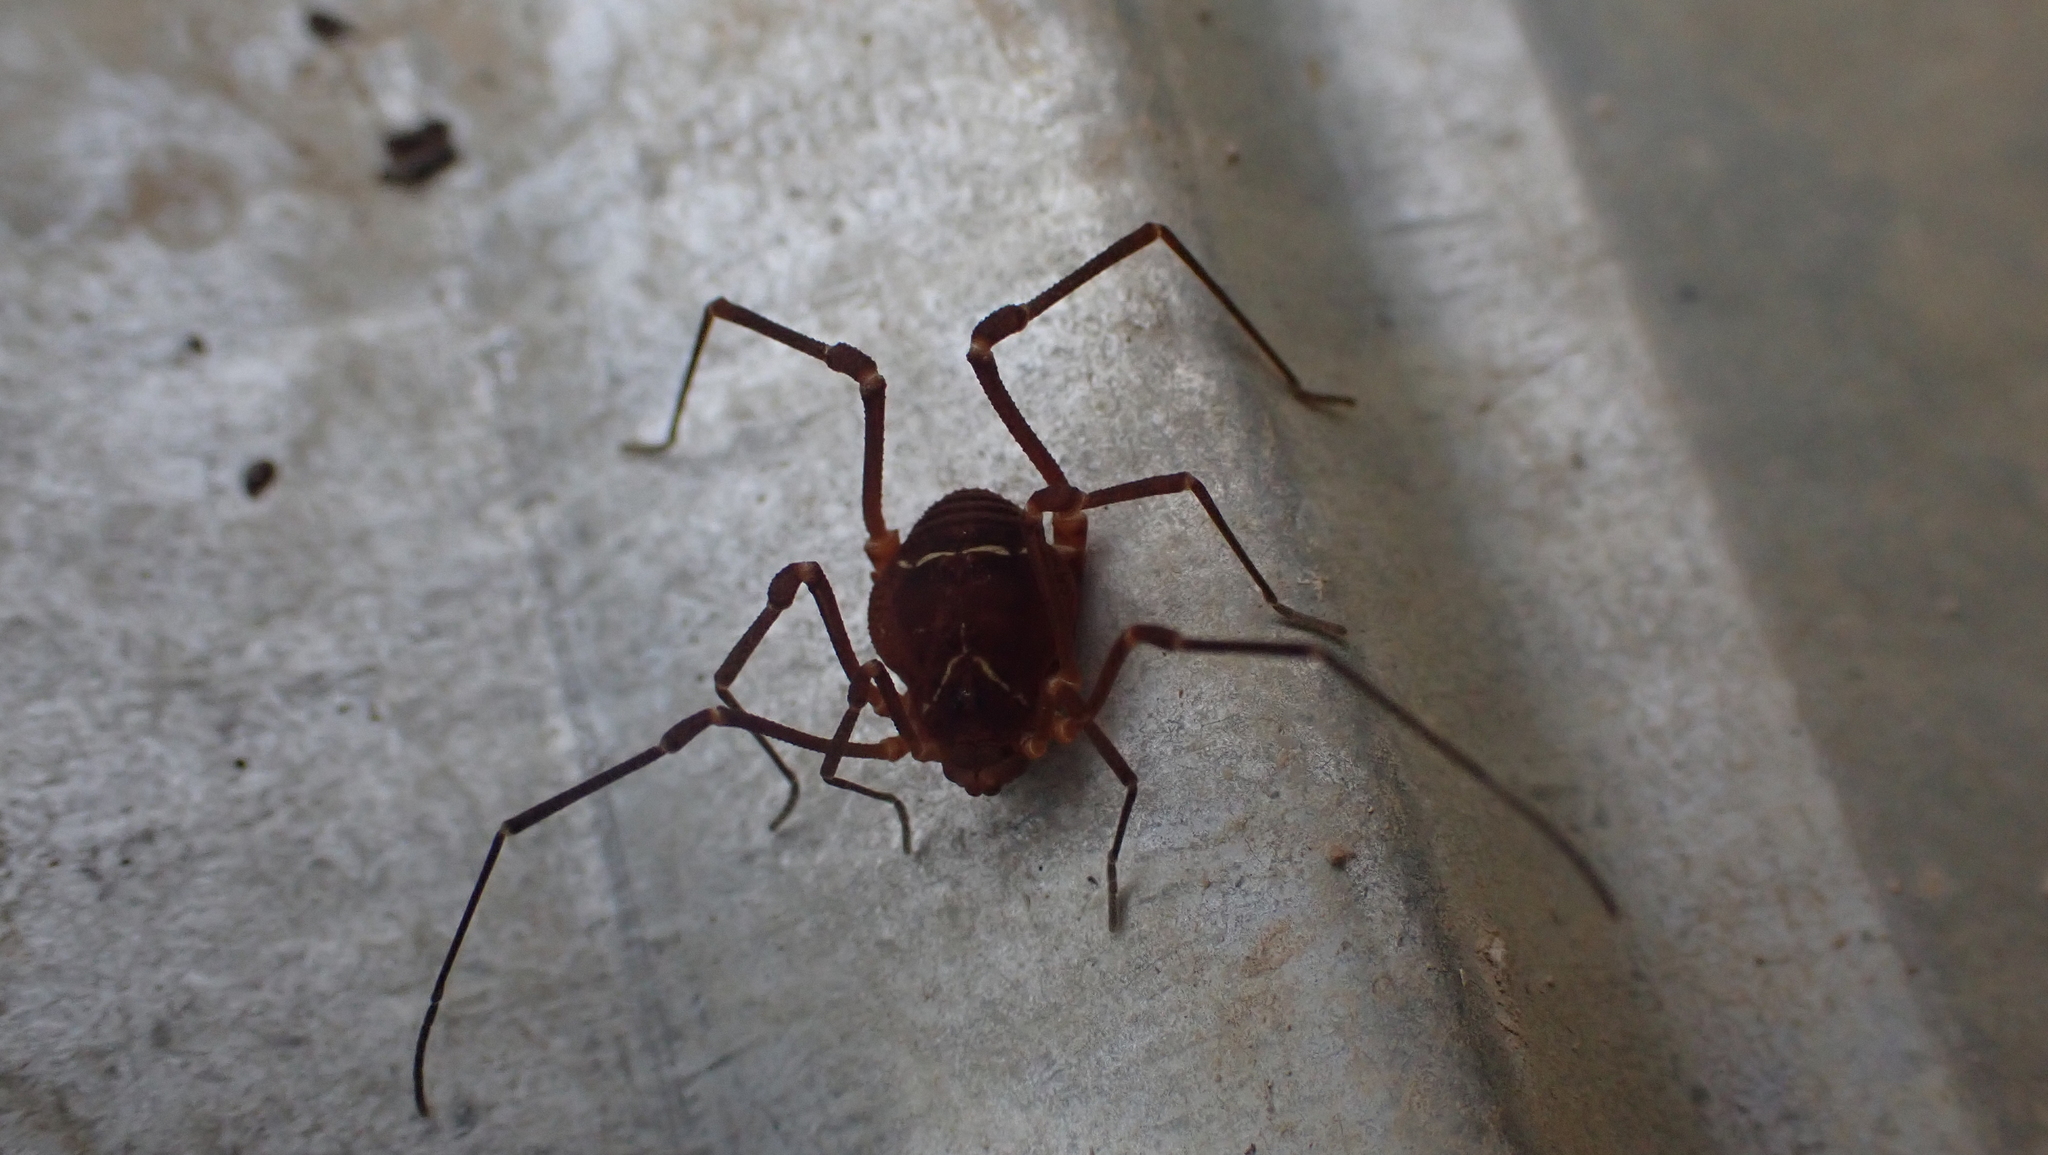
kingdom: Animalia
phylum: Arthropoda
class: Arachnida
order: Opiliones
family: Cosmetidae
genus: Libitioides
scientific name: Libitioides sayi
